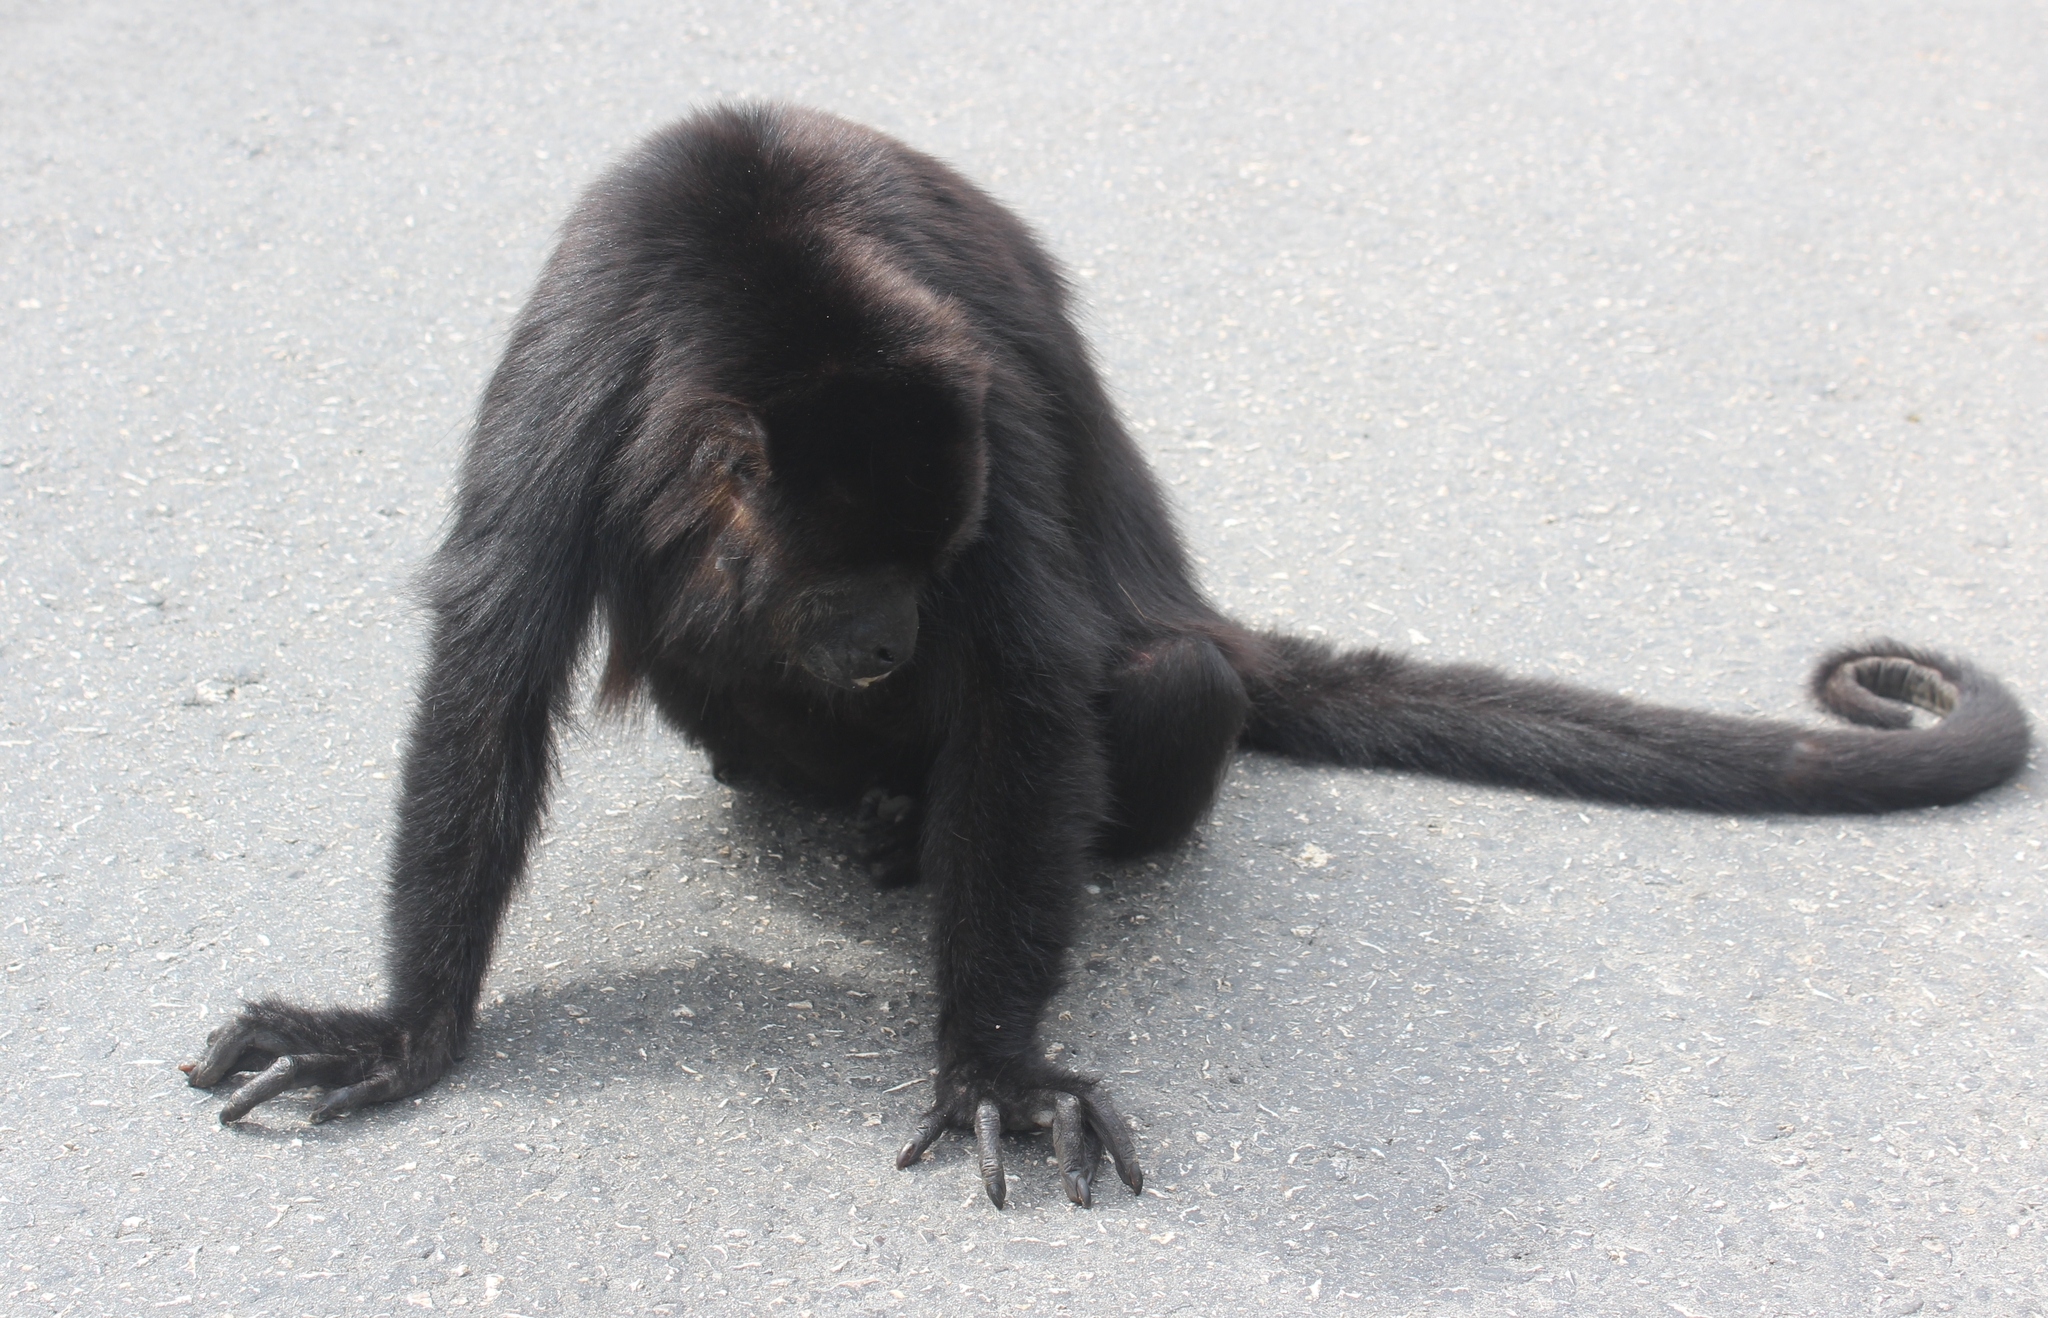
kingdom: Animalia
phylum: Chordata
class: Mammalia
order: Primates
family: Atelidae
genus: Alouatta
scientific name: Alouatta pigra
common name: Guatemalan black howler
